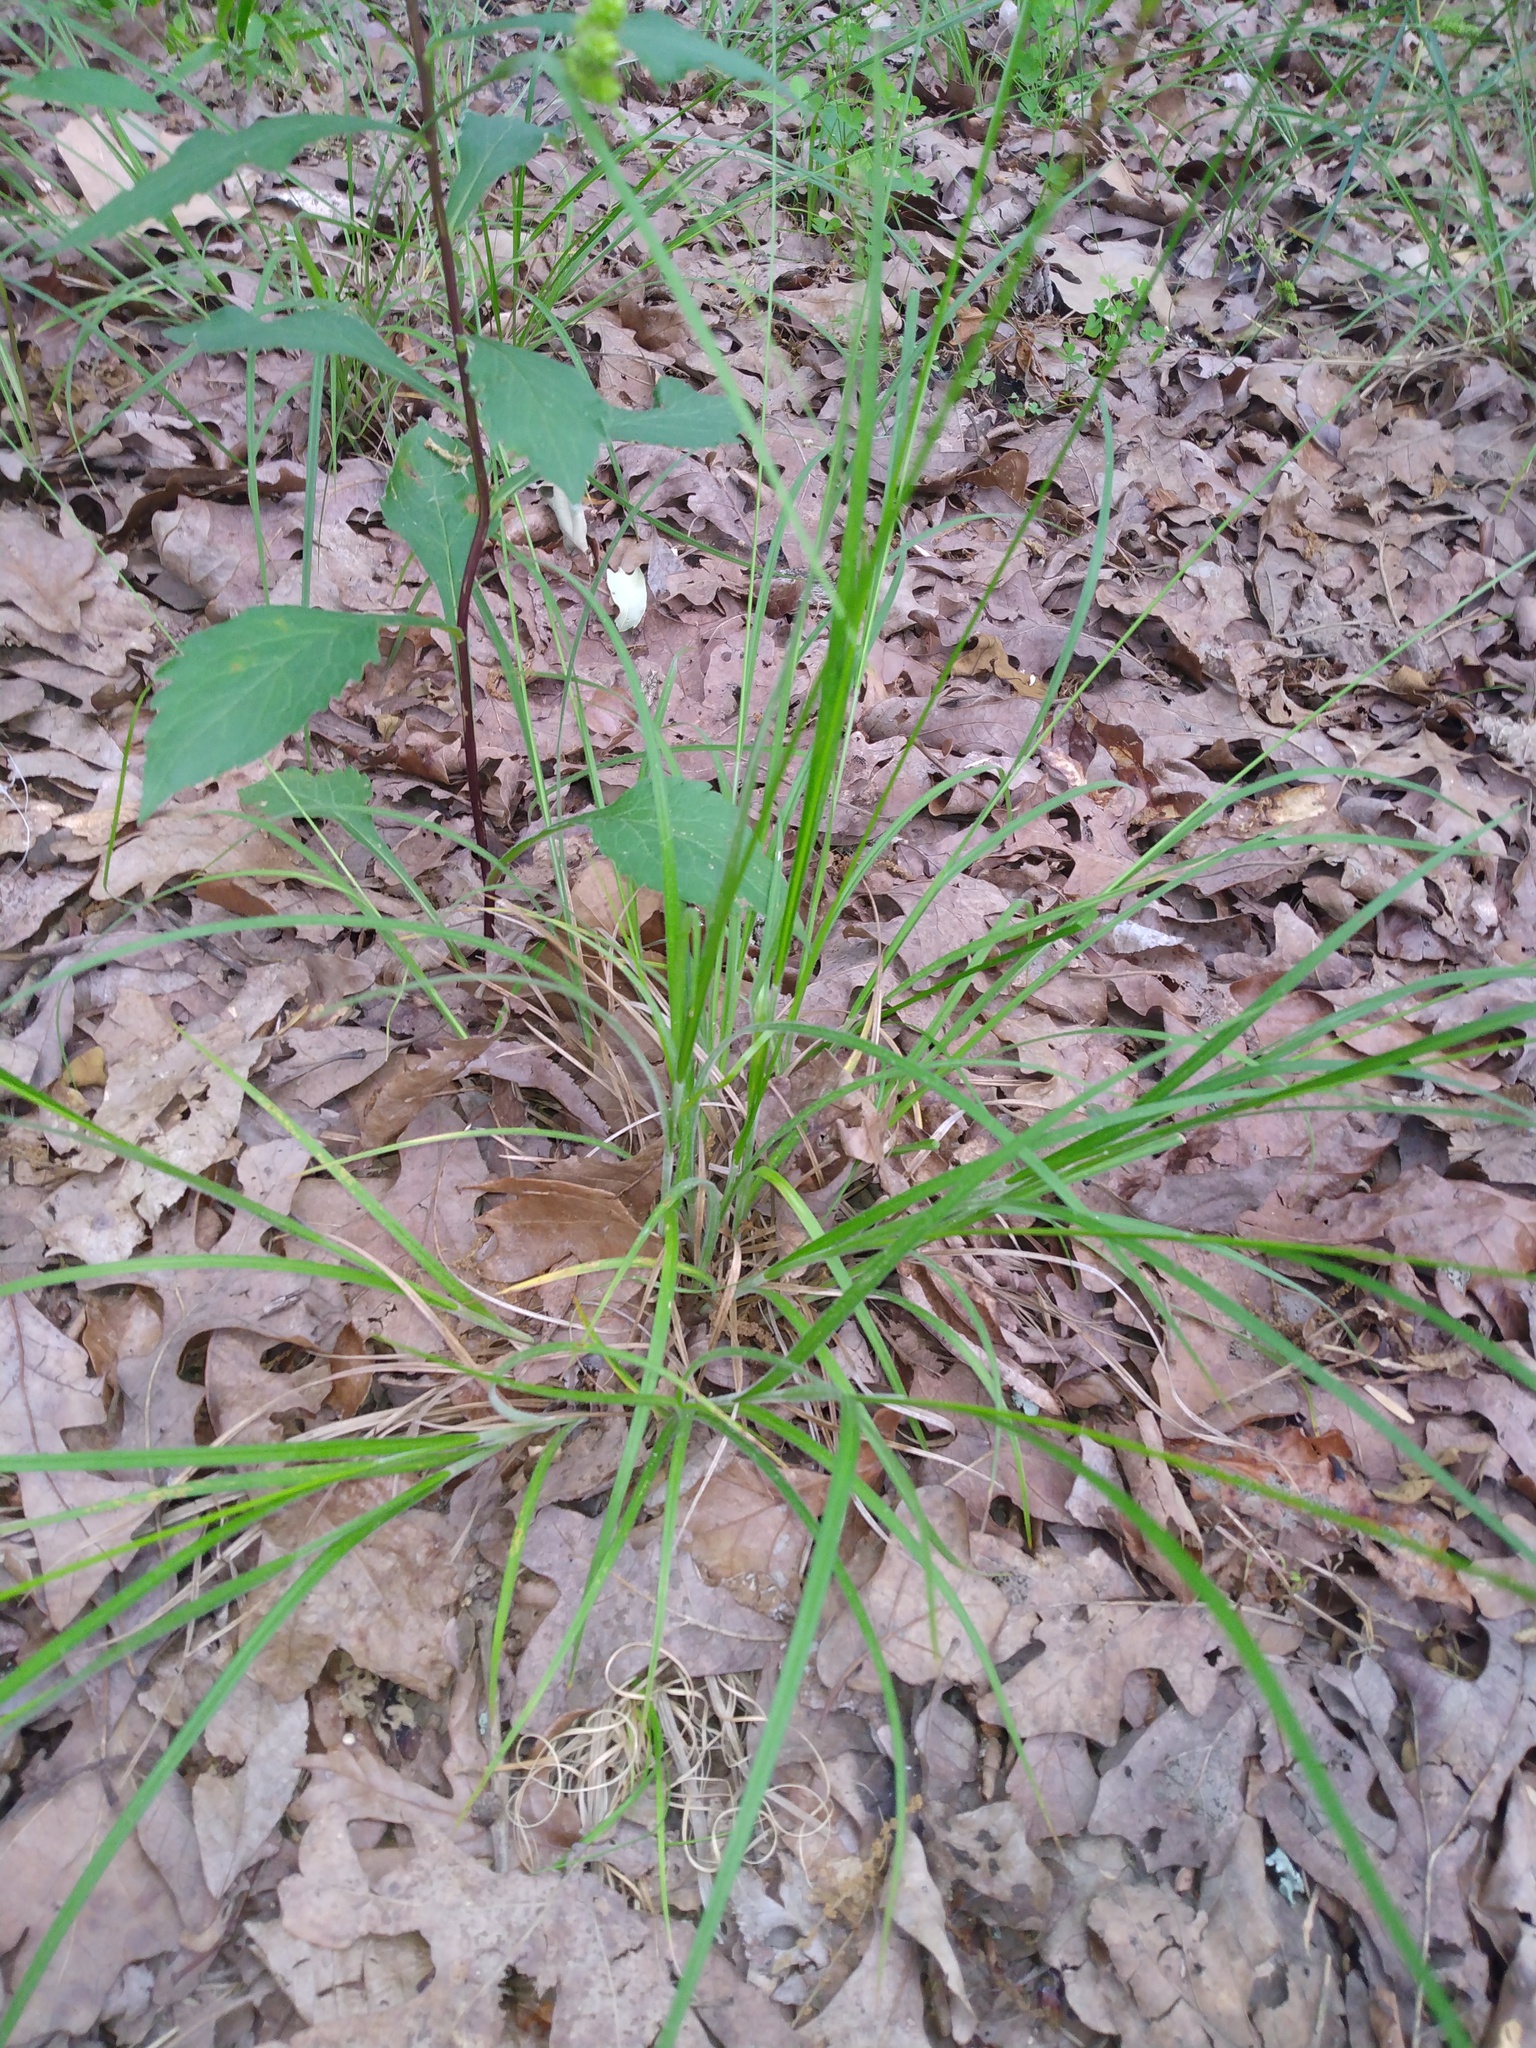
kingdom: Plantae
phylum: Tracheophyta
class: Liliopsida
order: Poales
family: Cyperaceae
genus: Carex
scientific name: Carex hirsutella
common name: Fuzzy wuzzy sedge
